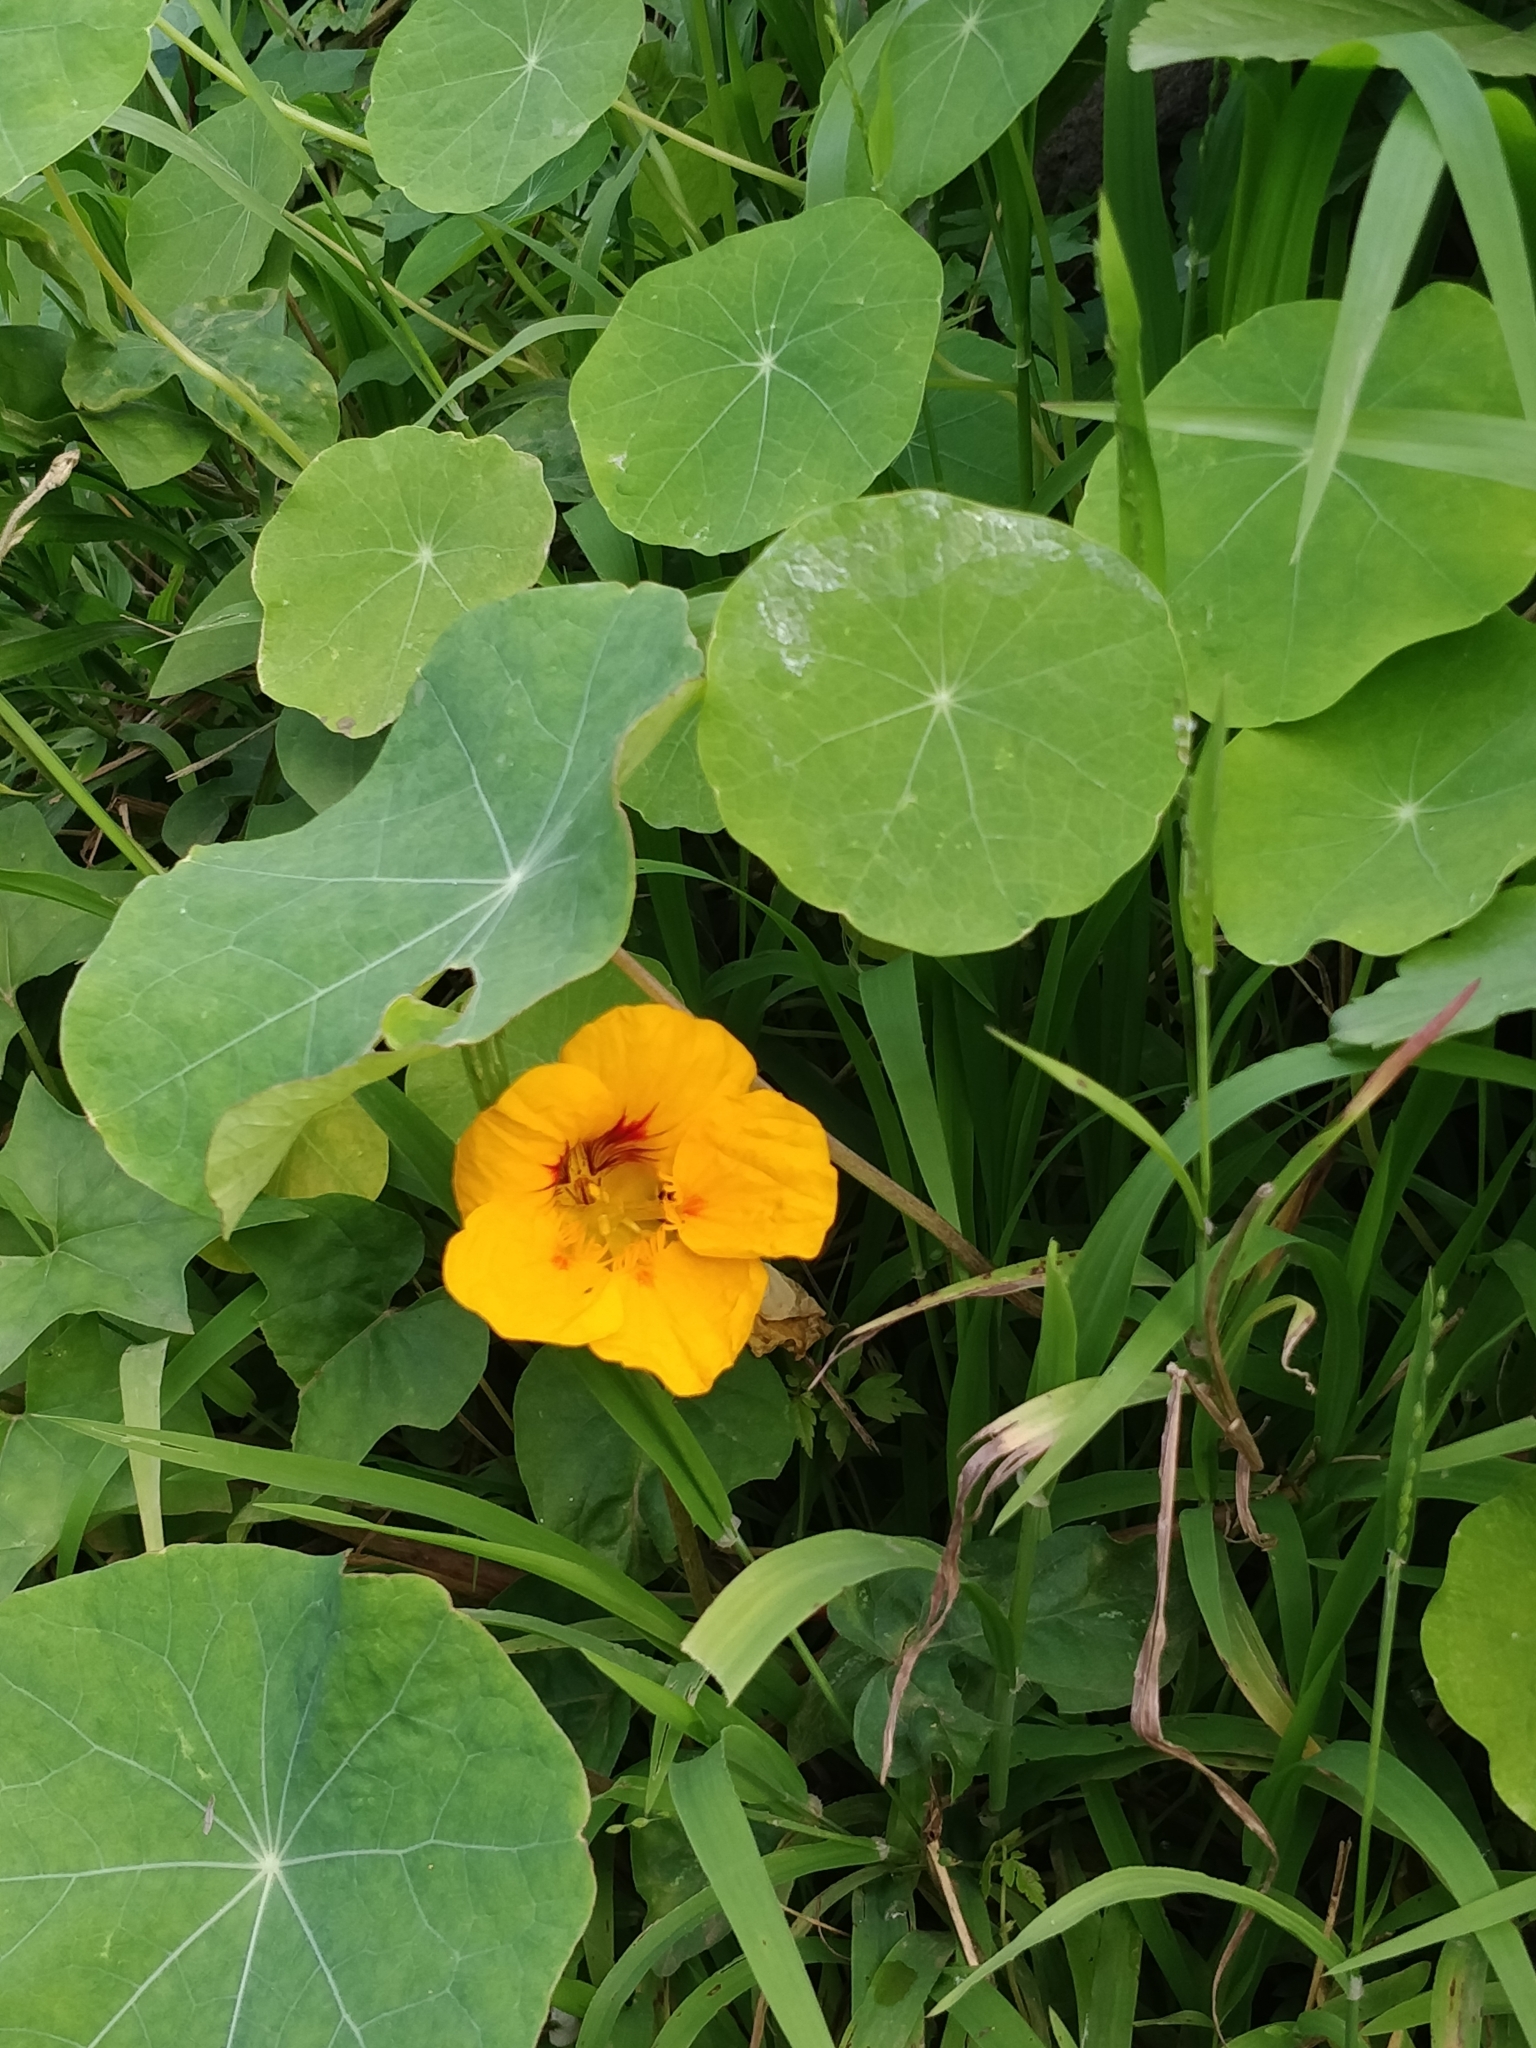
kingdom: Plantae
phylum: Tracheophyta
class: Magnoliopsida
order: Brassicales
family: Tropaeolaceae
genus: Tropaeolum
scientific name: Tropaeolum majus
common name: Nasturtium
